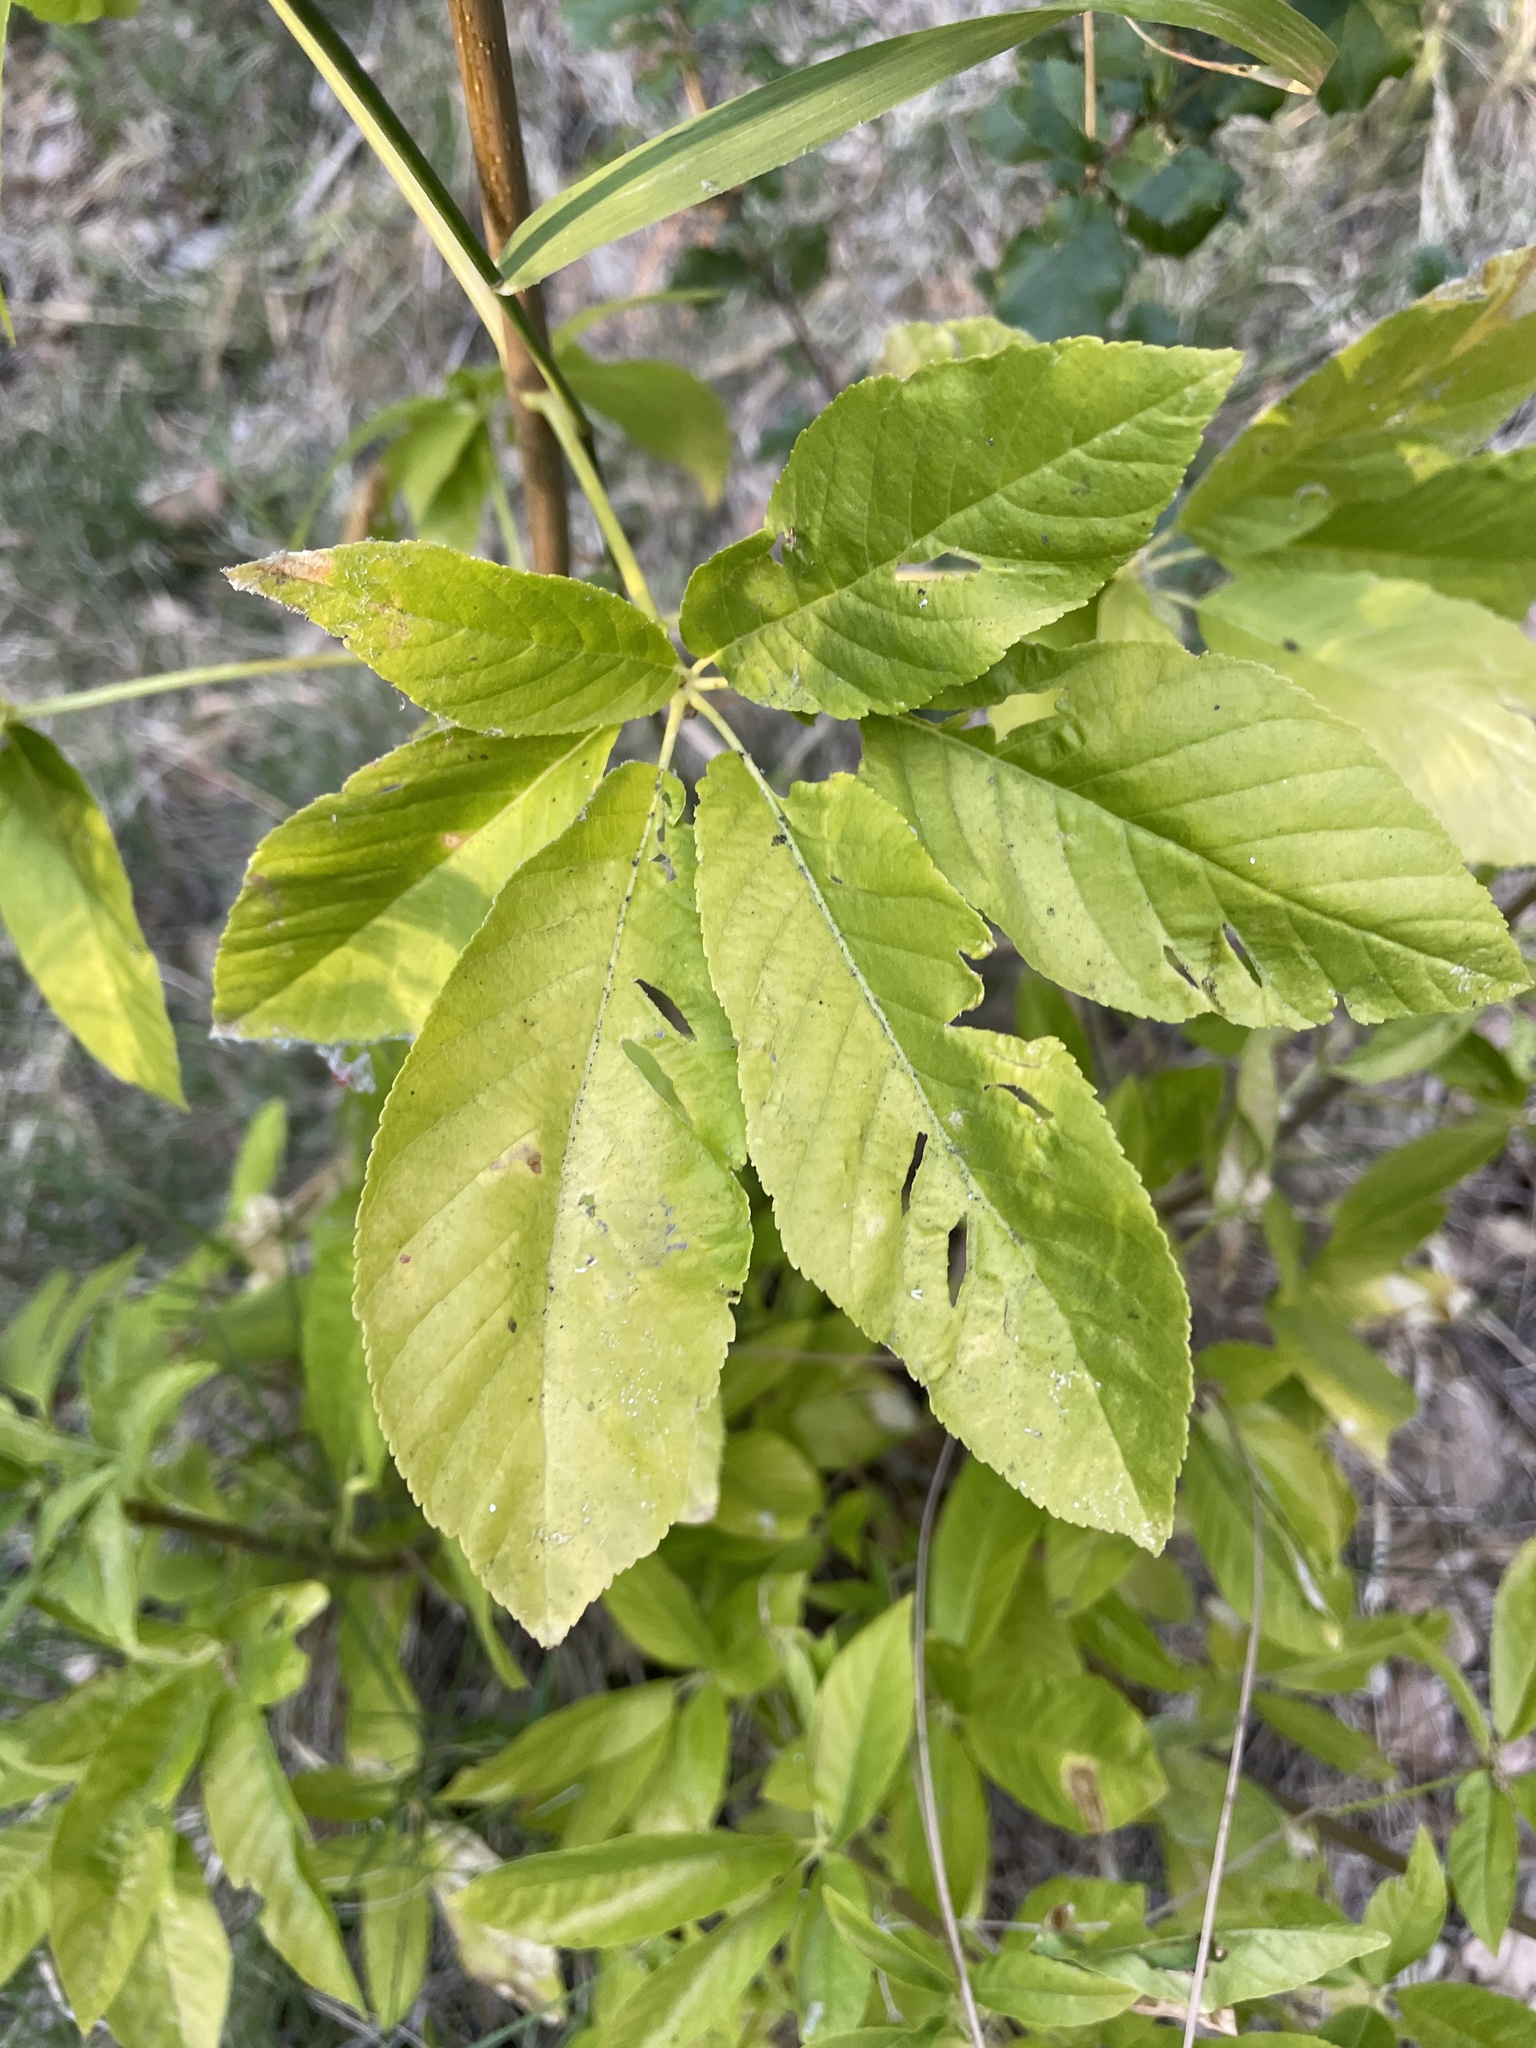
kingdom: Plantae
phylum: Tracheophyta
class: Magnoliopsida
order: Sapindales
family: Sapindaceae
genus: Aesculus
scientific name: Aesculus californica
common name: California buckeye
